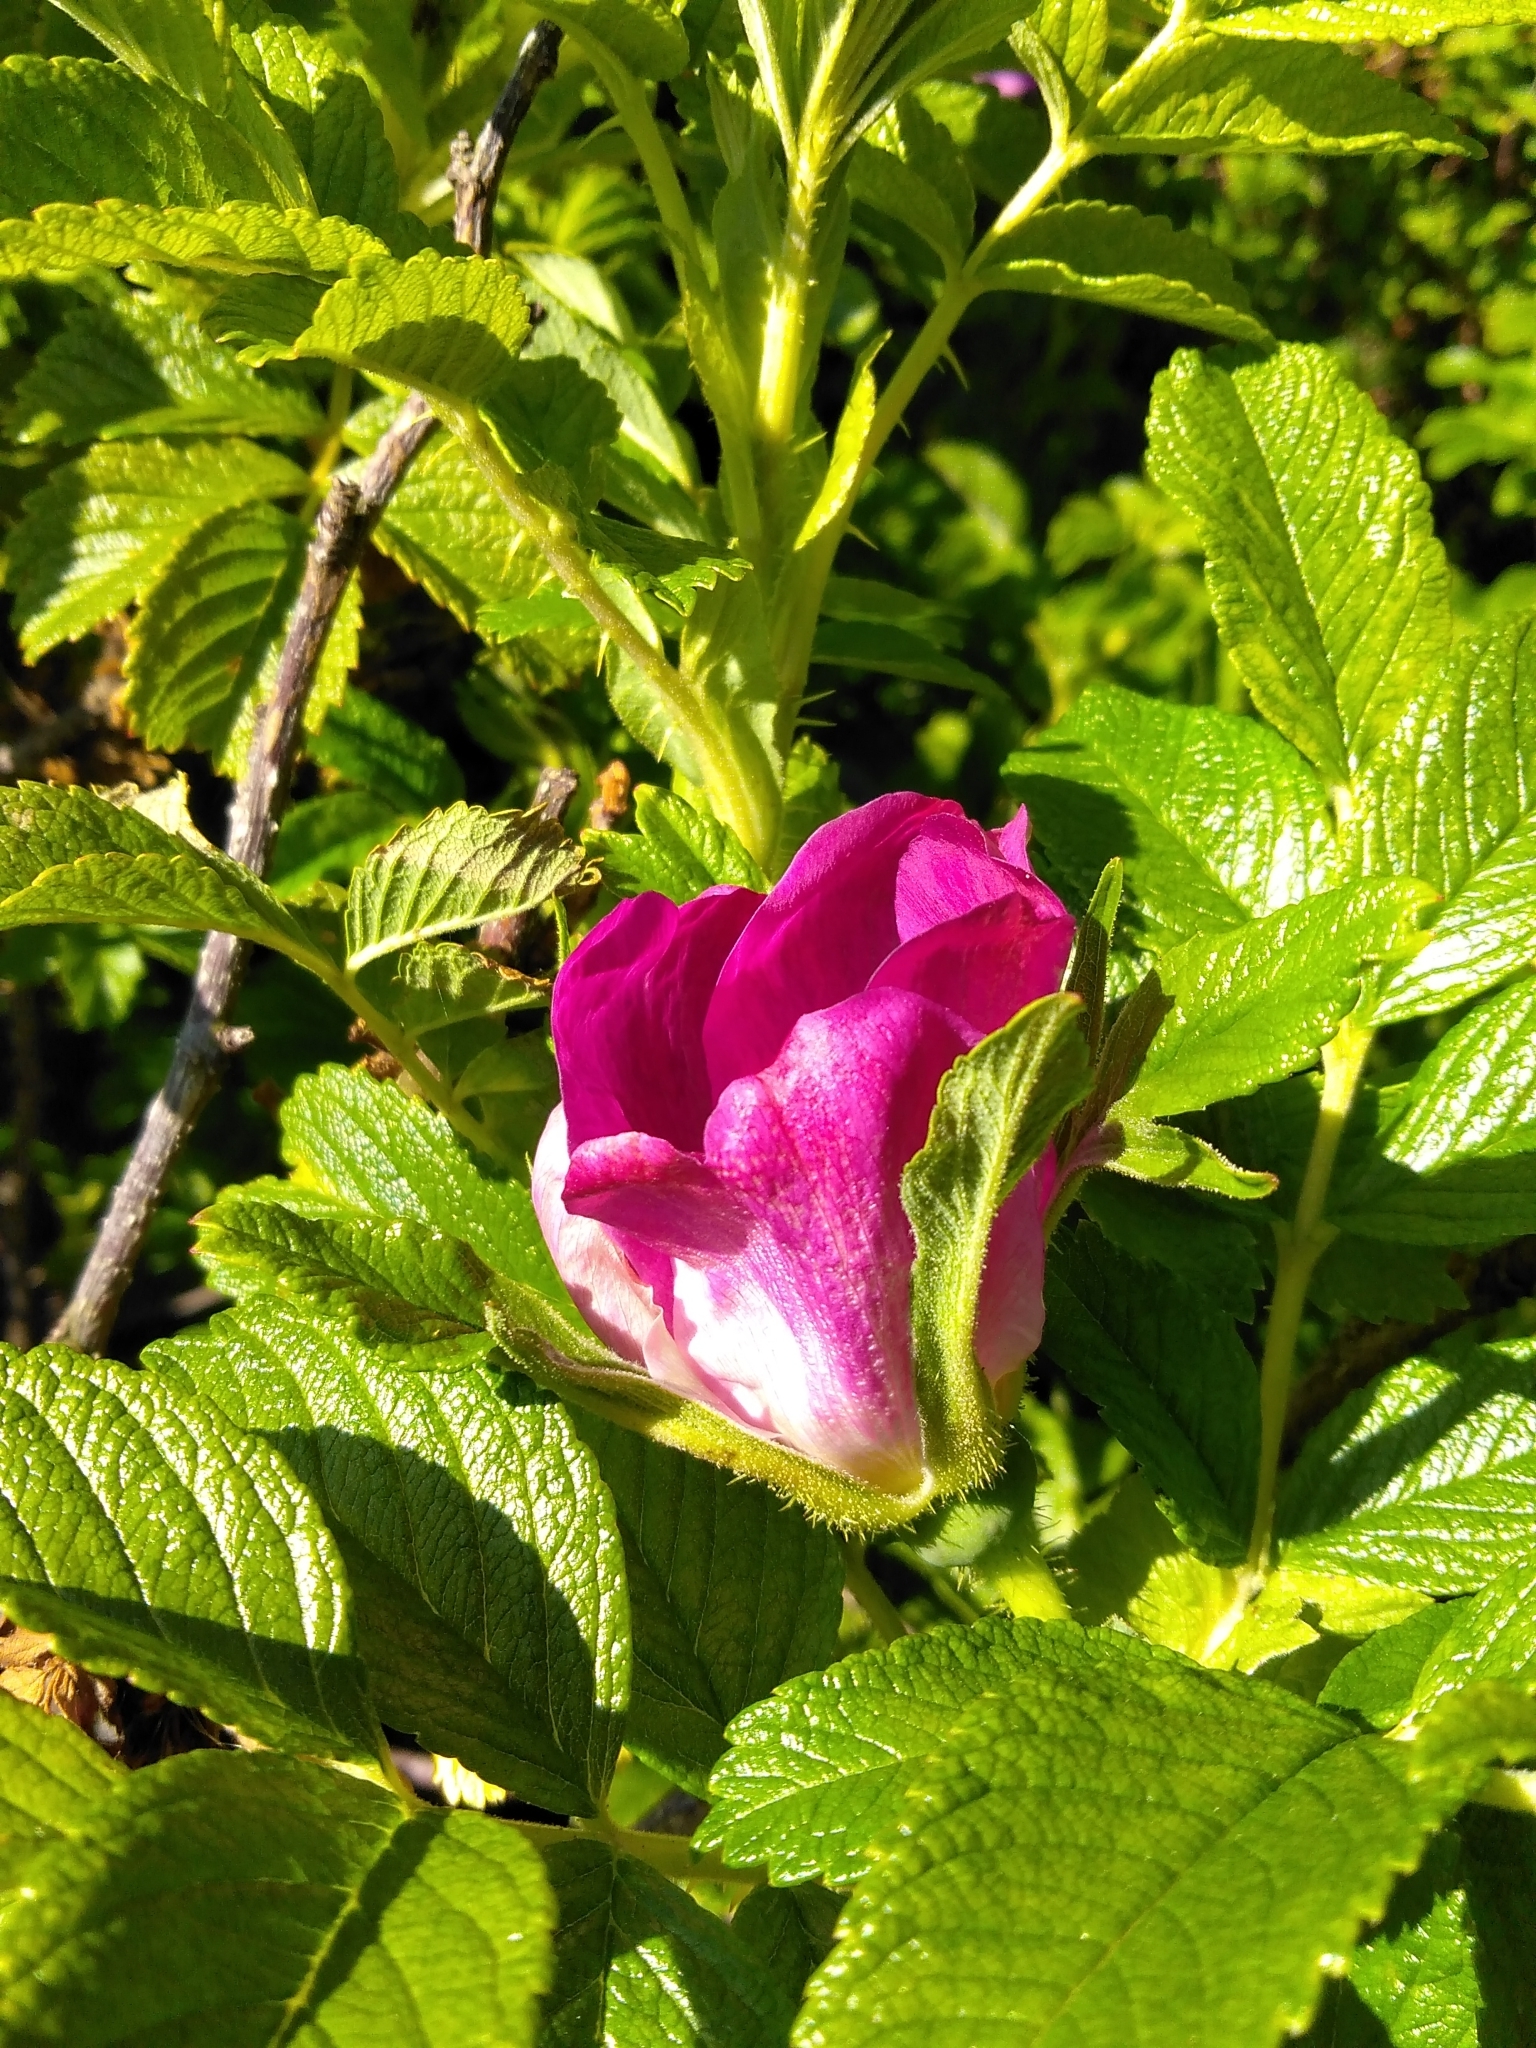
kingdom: Plantae
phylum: Tracheophyta
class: Magnoliopsida
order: Rosales
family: Rosaceae
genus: Rosa
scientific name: Rosa rugosa
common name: Japanese rose
